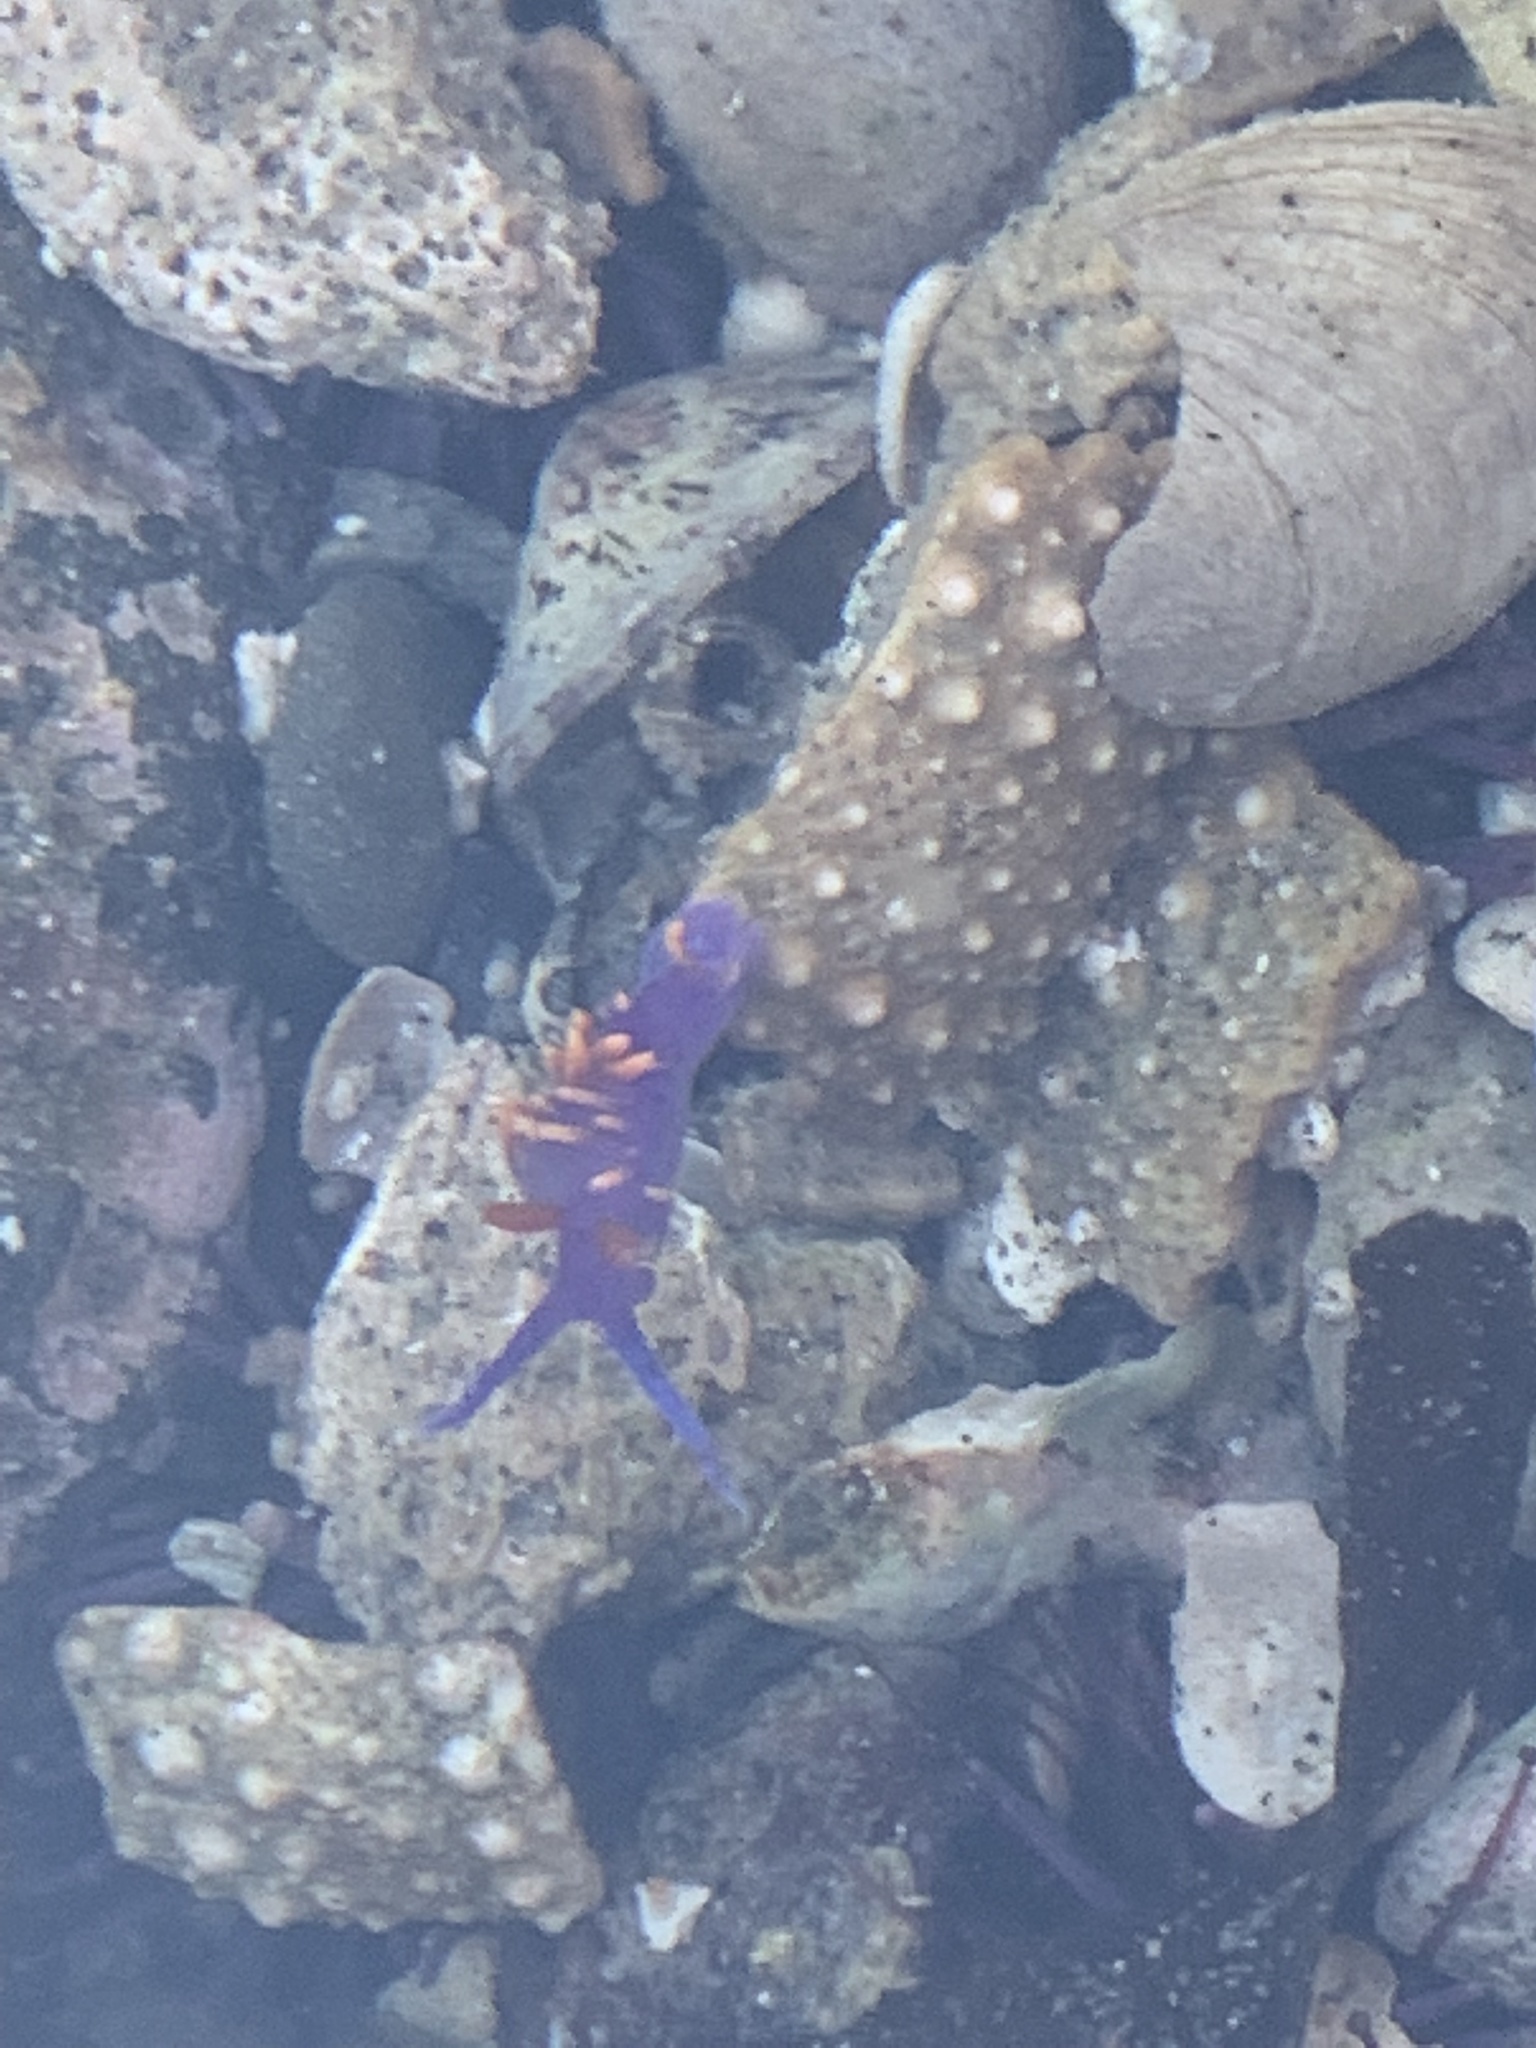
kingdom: Animalia
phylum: Mollusca
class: Gastropoda
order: Nudibranchia
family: Flabellinopsidae
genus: Flabellinopsis
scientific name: Flabellinopsis iodinea
